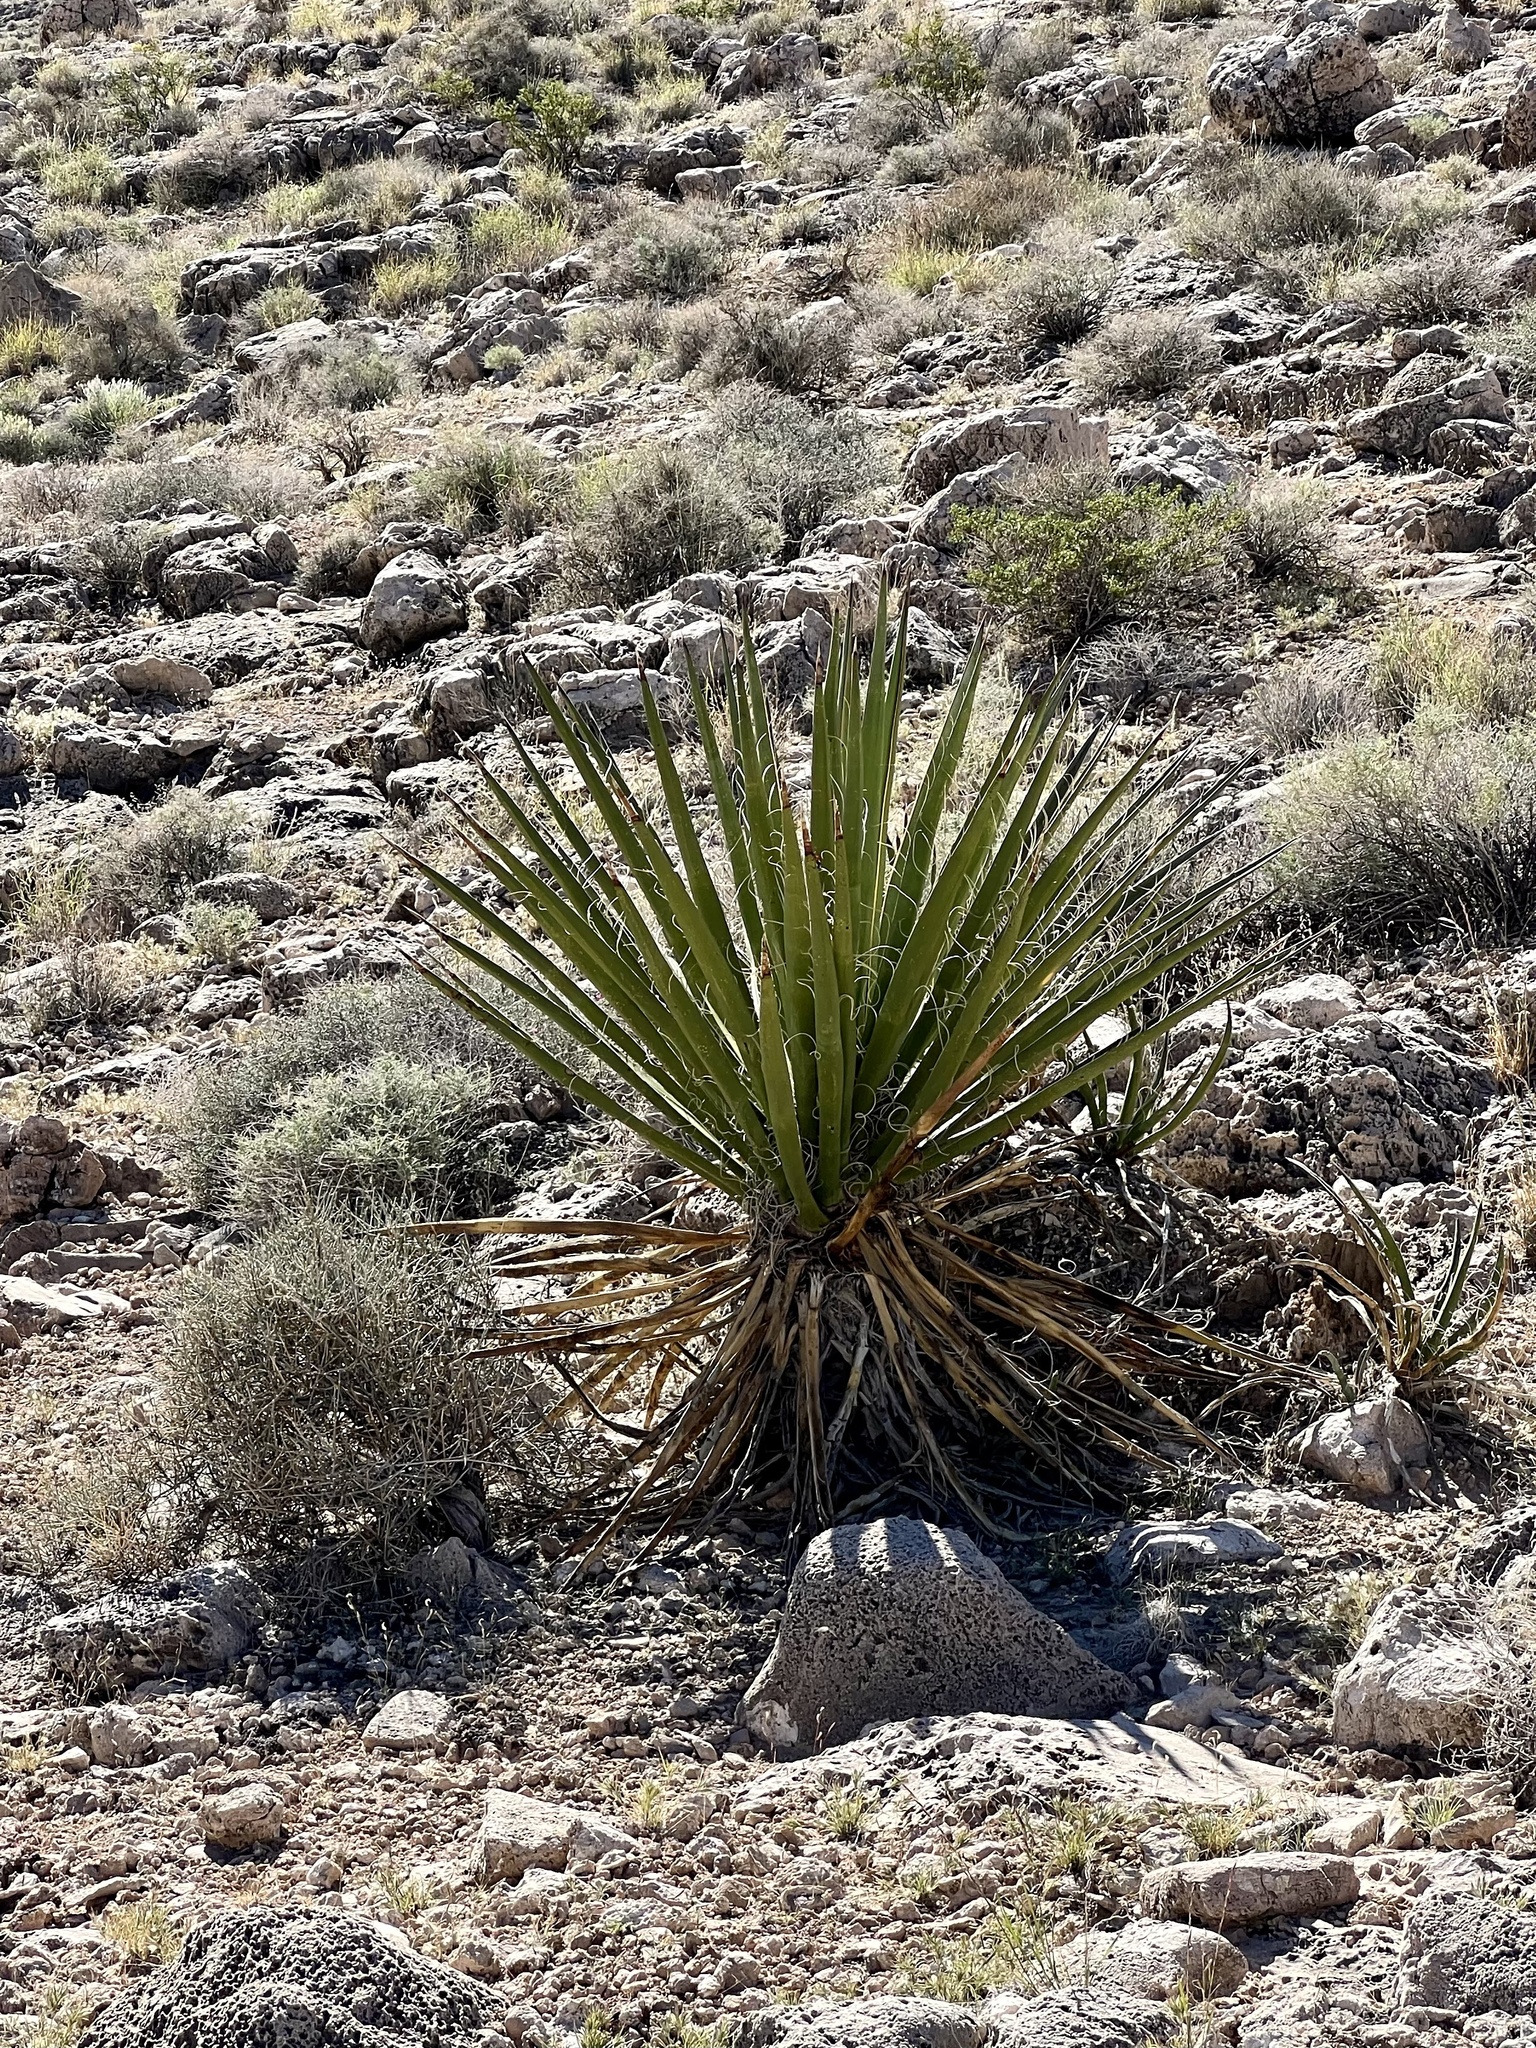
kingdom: Plantae
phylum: Tracheophyta
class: Liliopsida
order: Asparagales
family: Asparagaceae
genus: Yucca
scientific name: Yucca schidigera
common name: Mojave yucca
